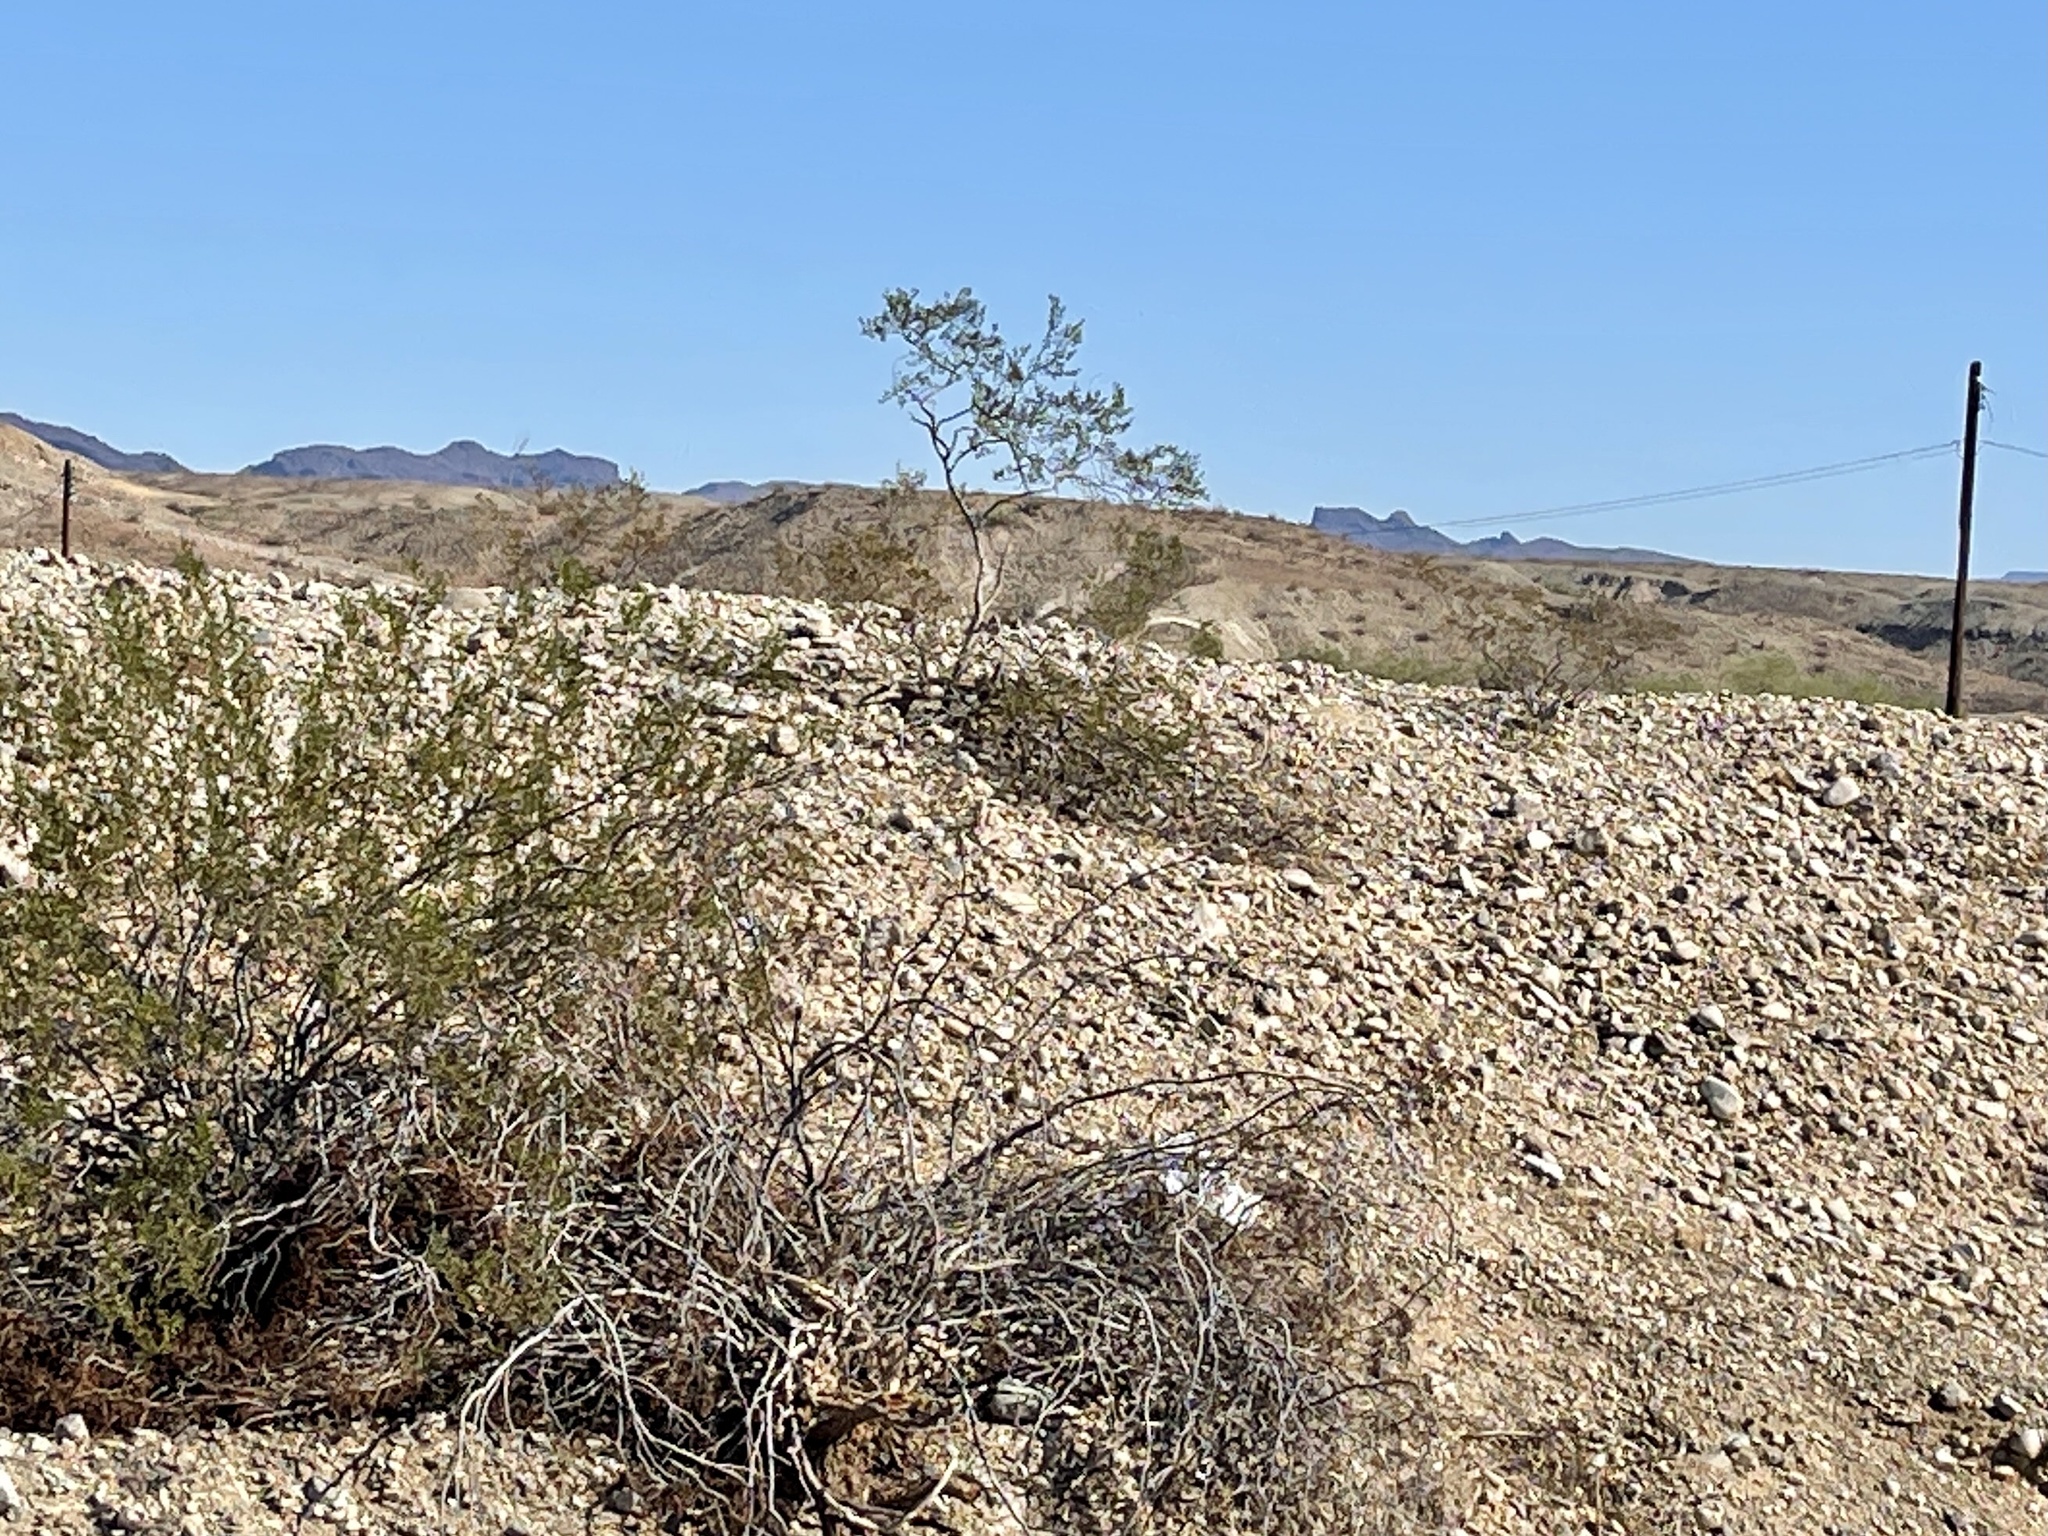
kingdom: Plantae
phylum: Tracheophyta
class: Magnoliopsida
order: Zygophyllales
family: Zygophyllaceae
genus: Larrea
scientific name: Larrea tridentata
